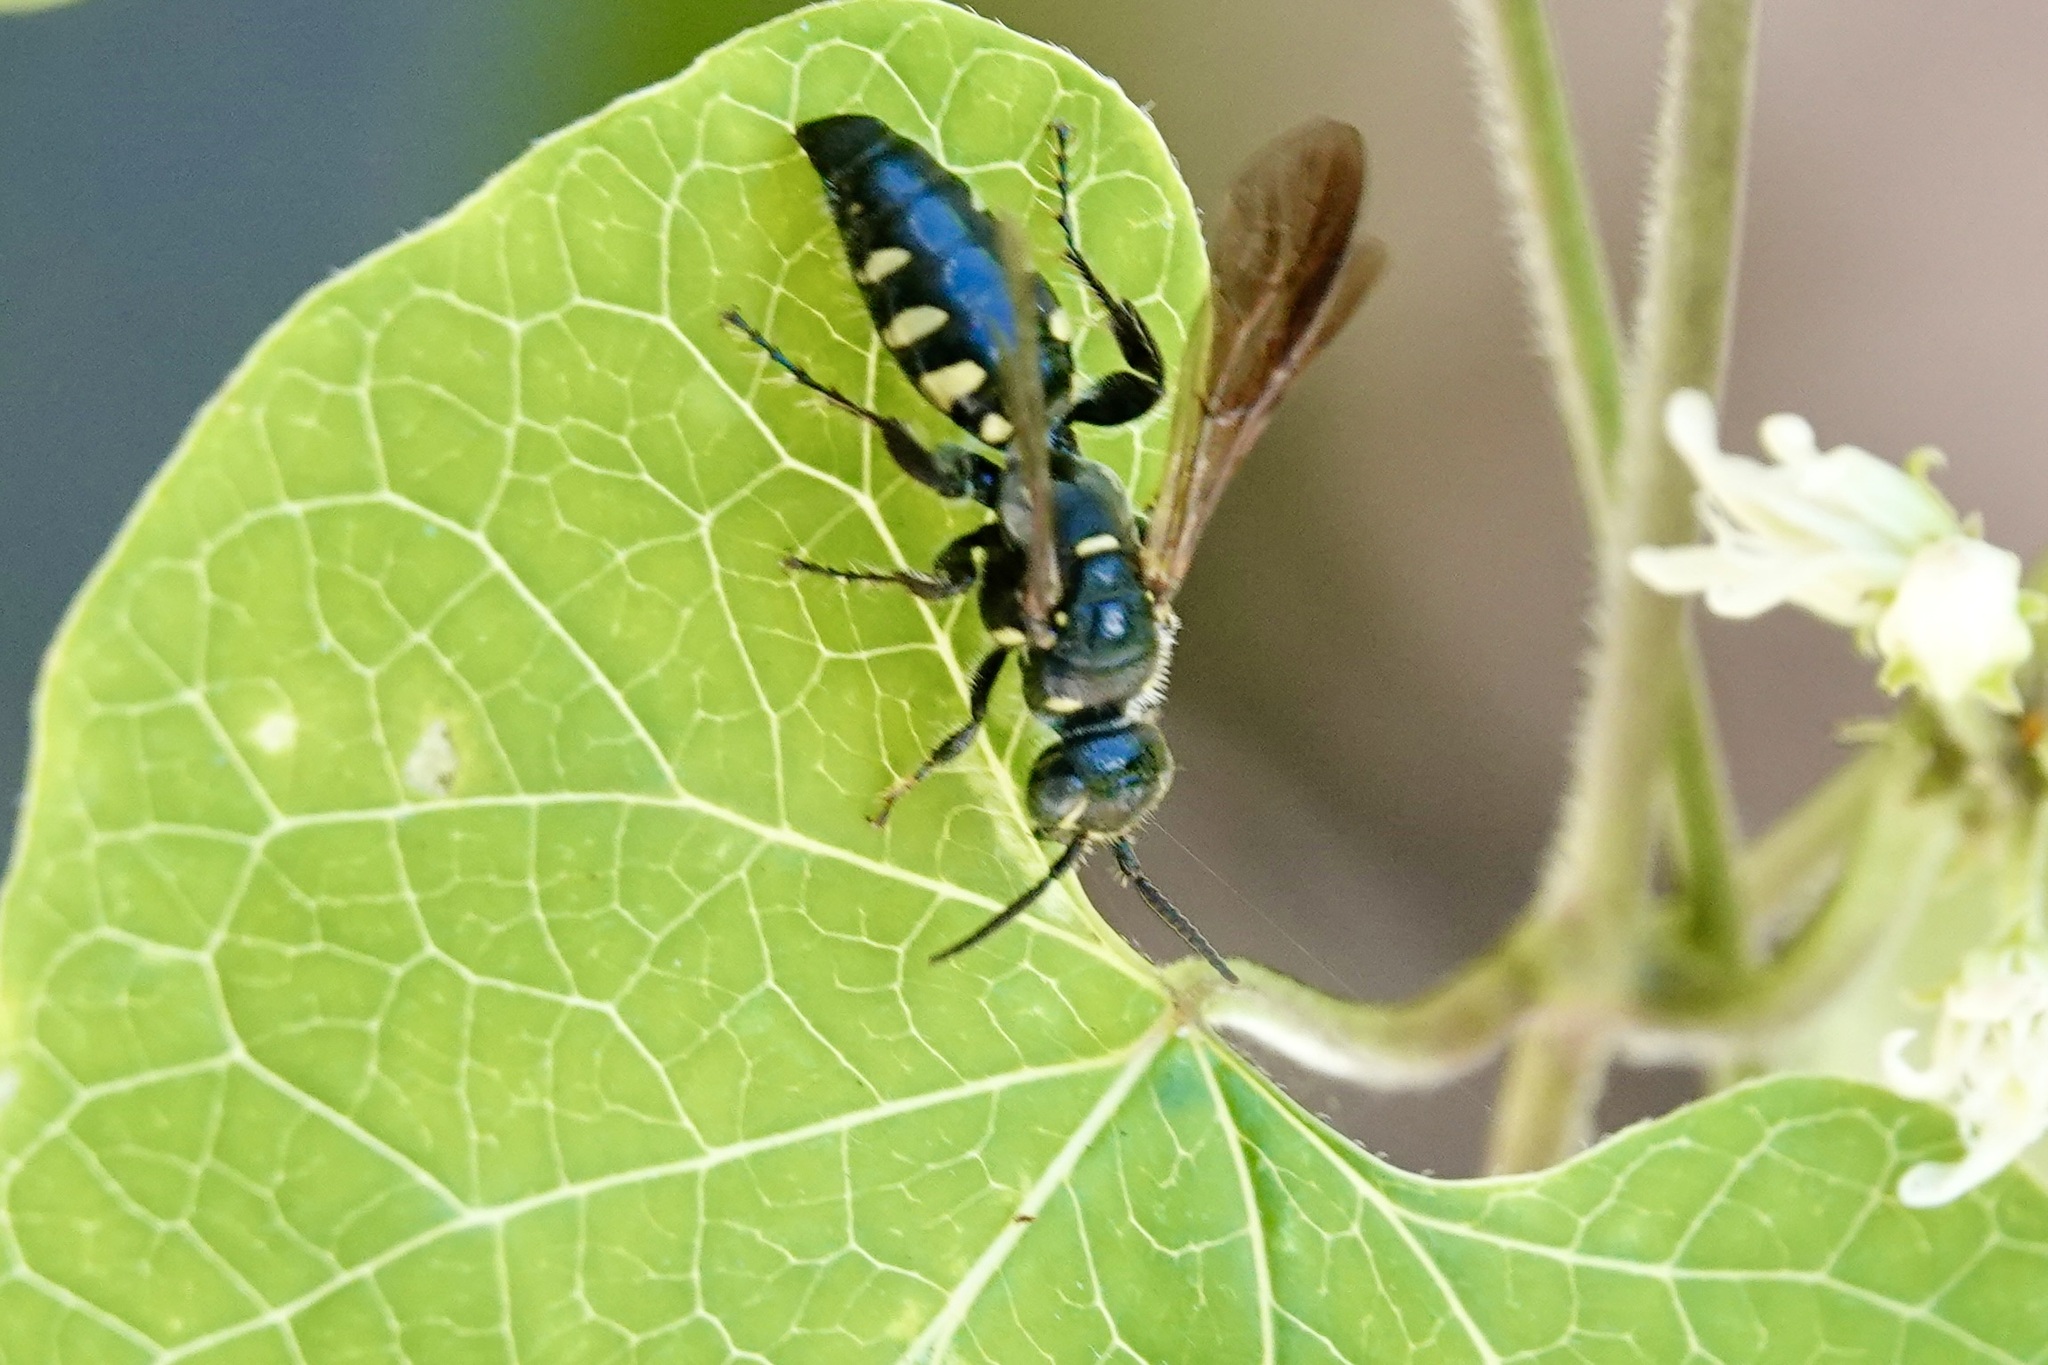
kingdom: Animalia
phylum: Arthropoda
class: Insecta
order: Hymenoptera
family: Tiphiidae
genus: Myzinum
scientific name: Myzinum obscurum
